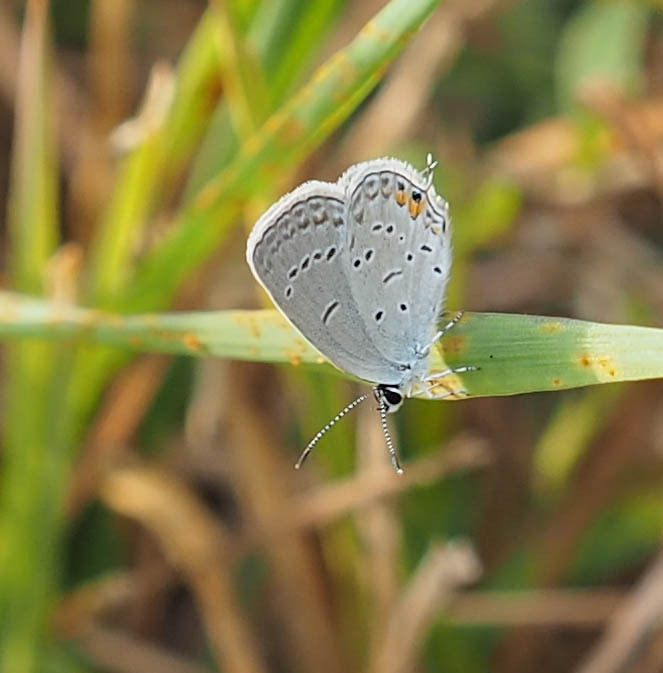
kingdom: Animalia
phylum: Arthropoda
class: Insecta
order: Lepidoptera
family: Lycaenidae
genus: Elkalyce
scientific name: Elkalyce comyntas
